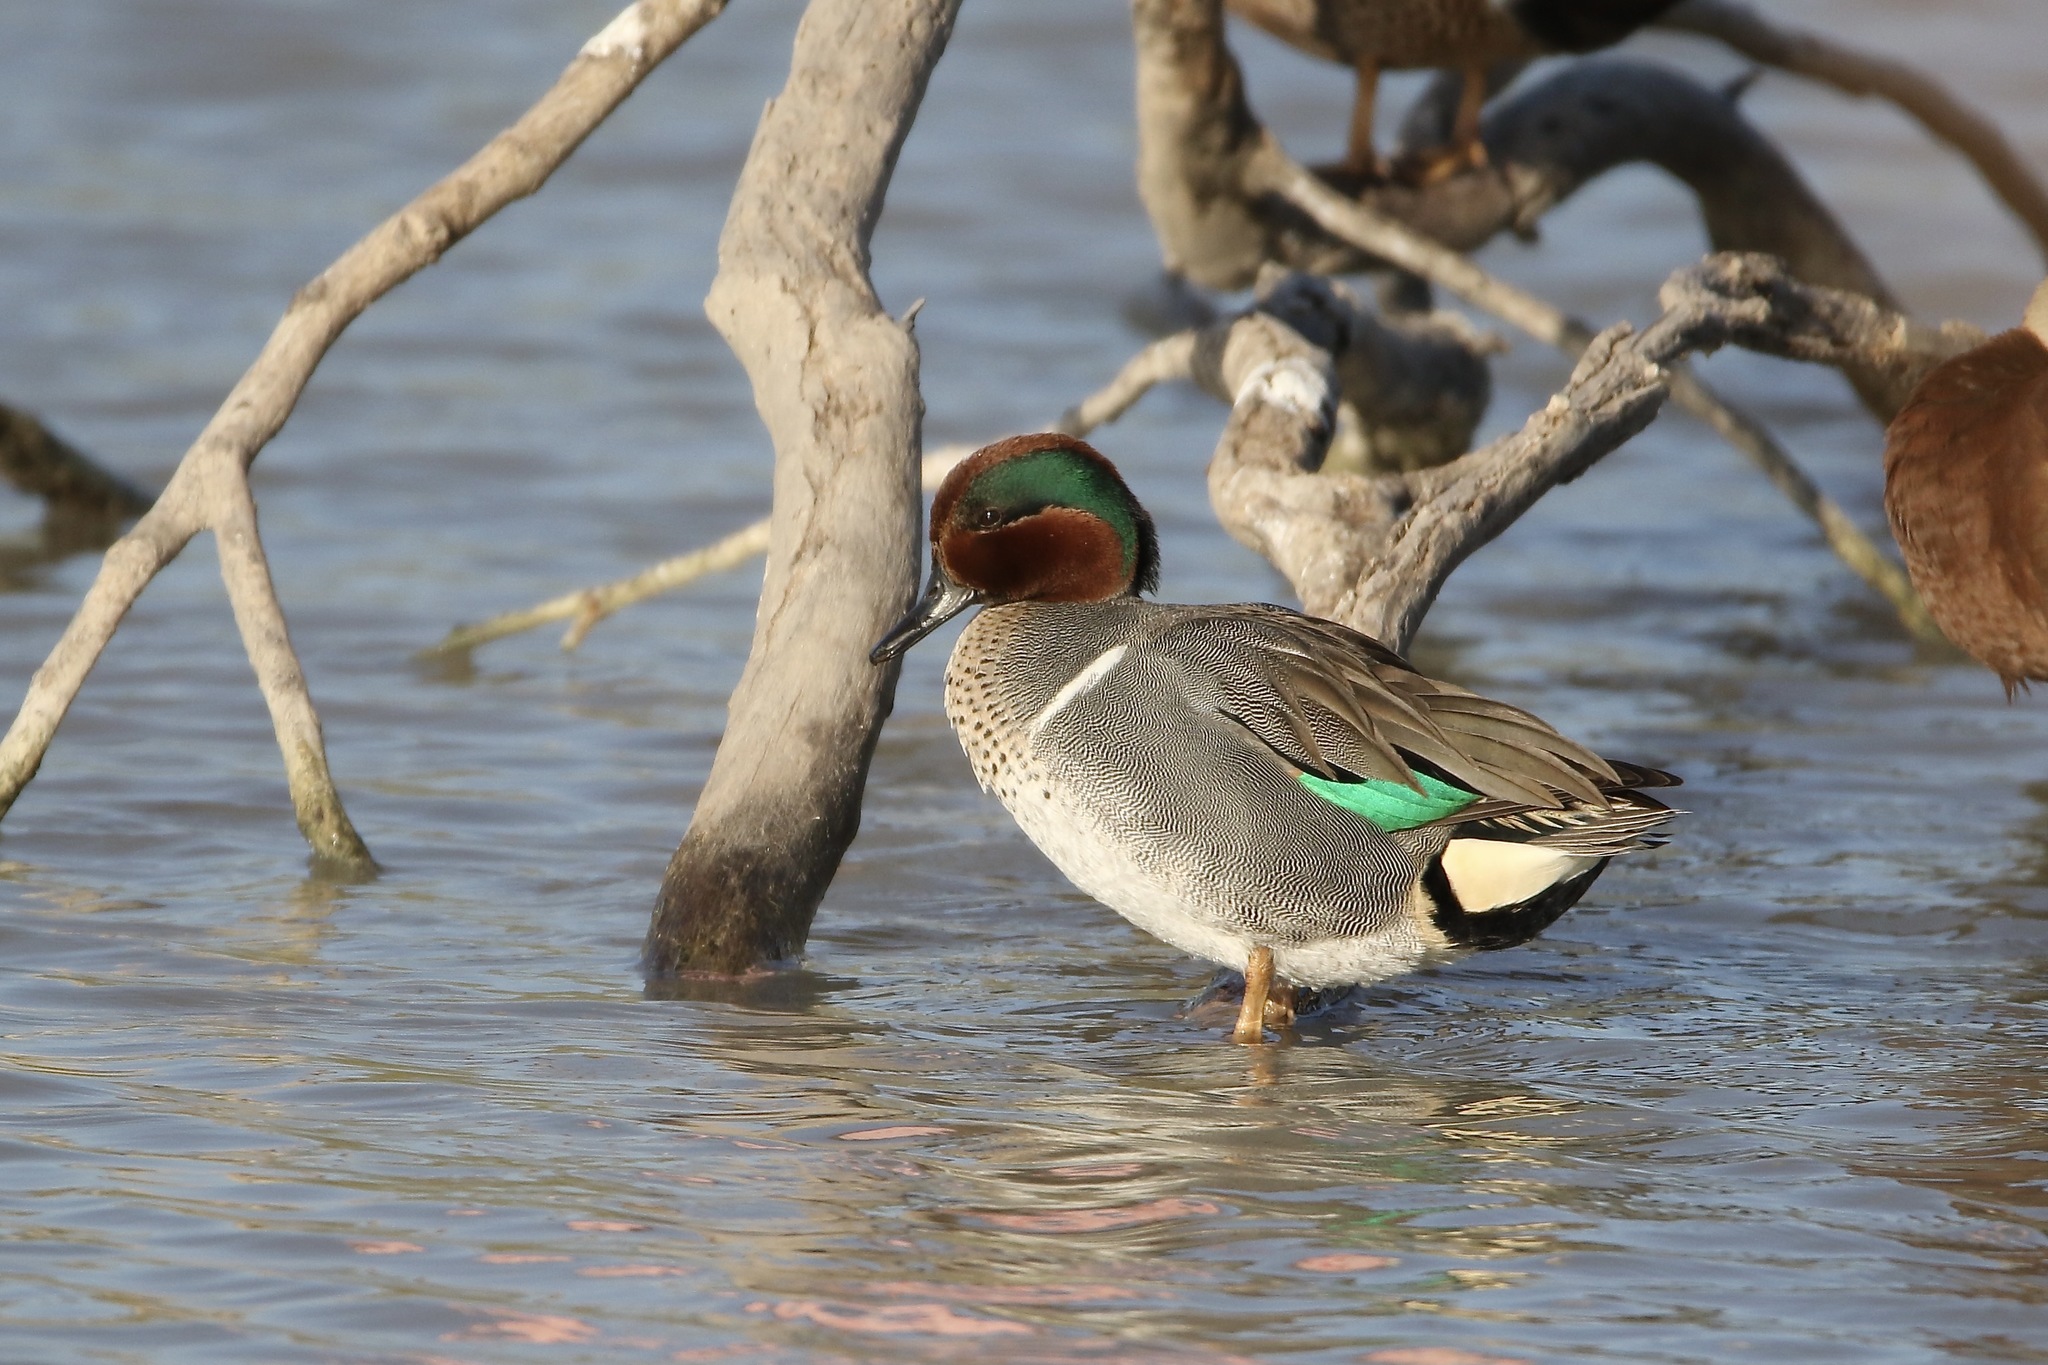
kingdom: Animalia
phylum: Chordata
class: Aves
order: Anseriformes
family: Anatidae
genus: Anas
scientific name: Anas crecca
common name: Eurasian teal
